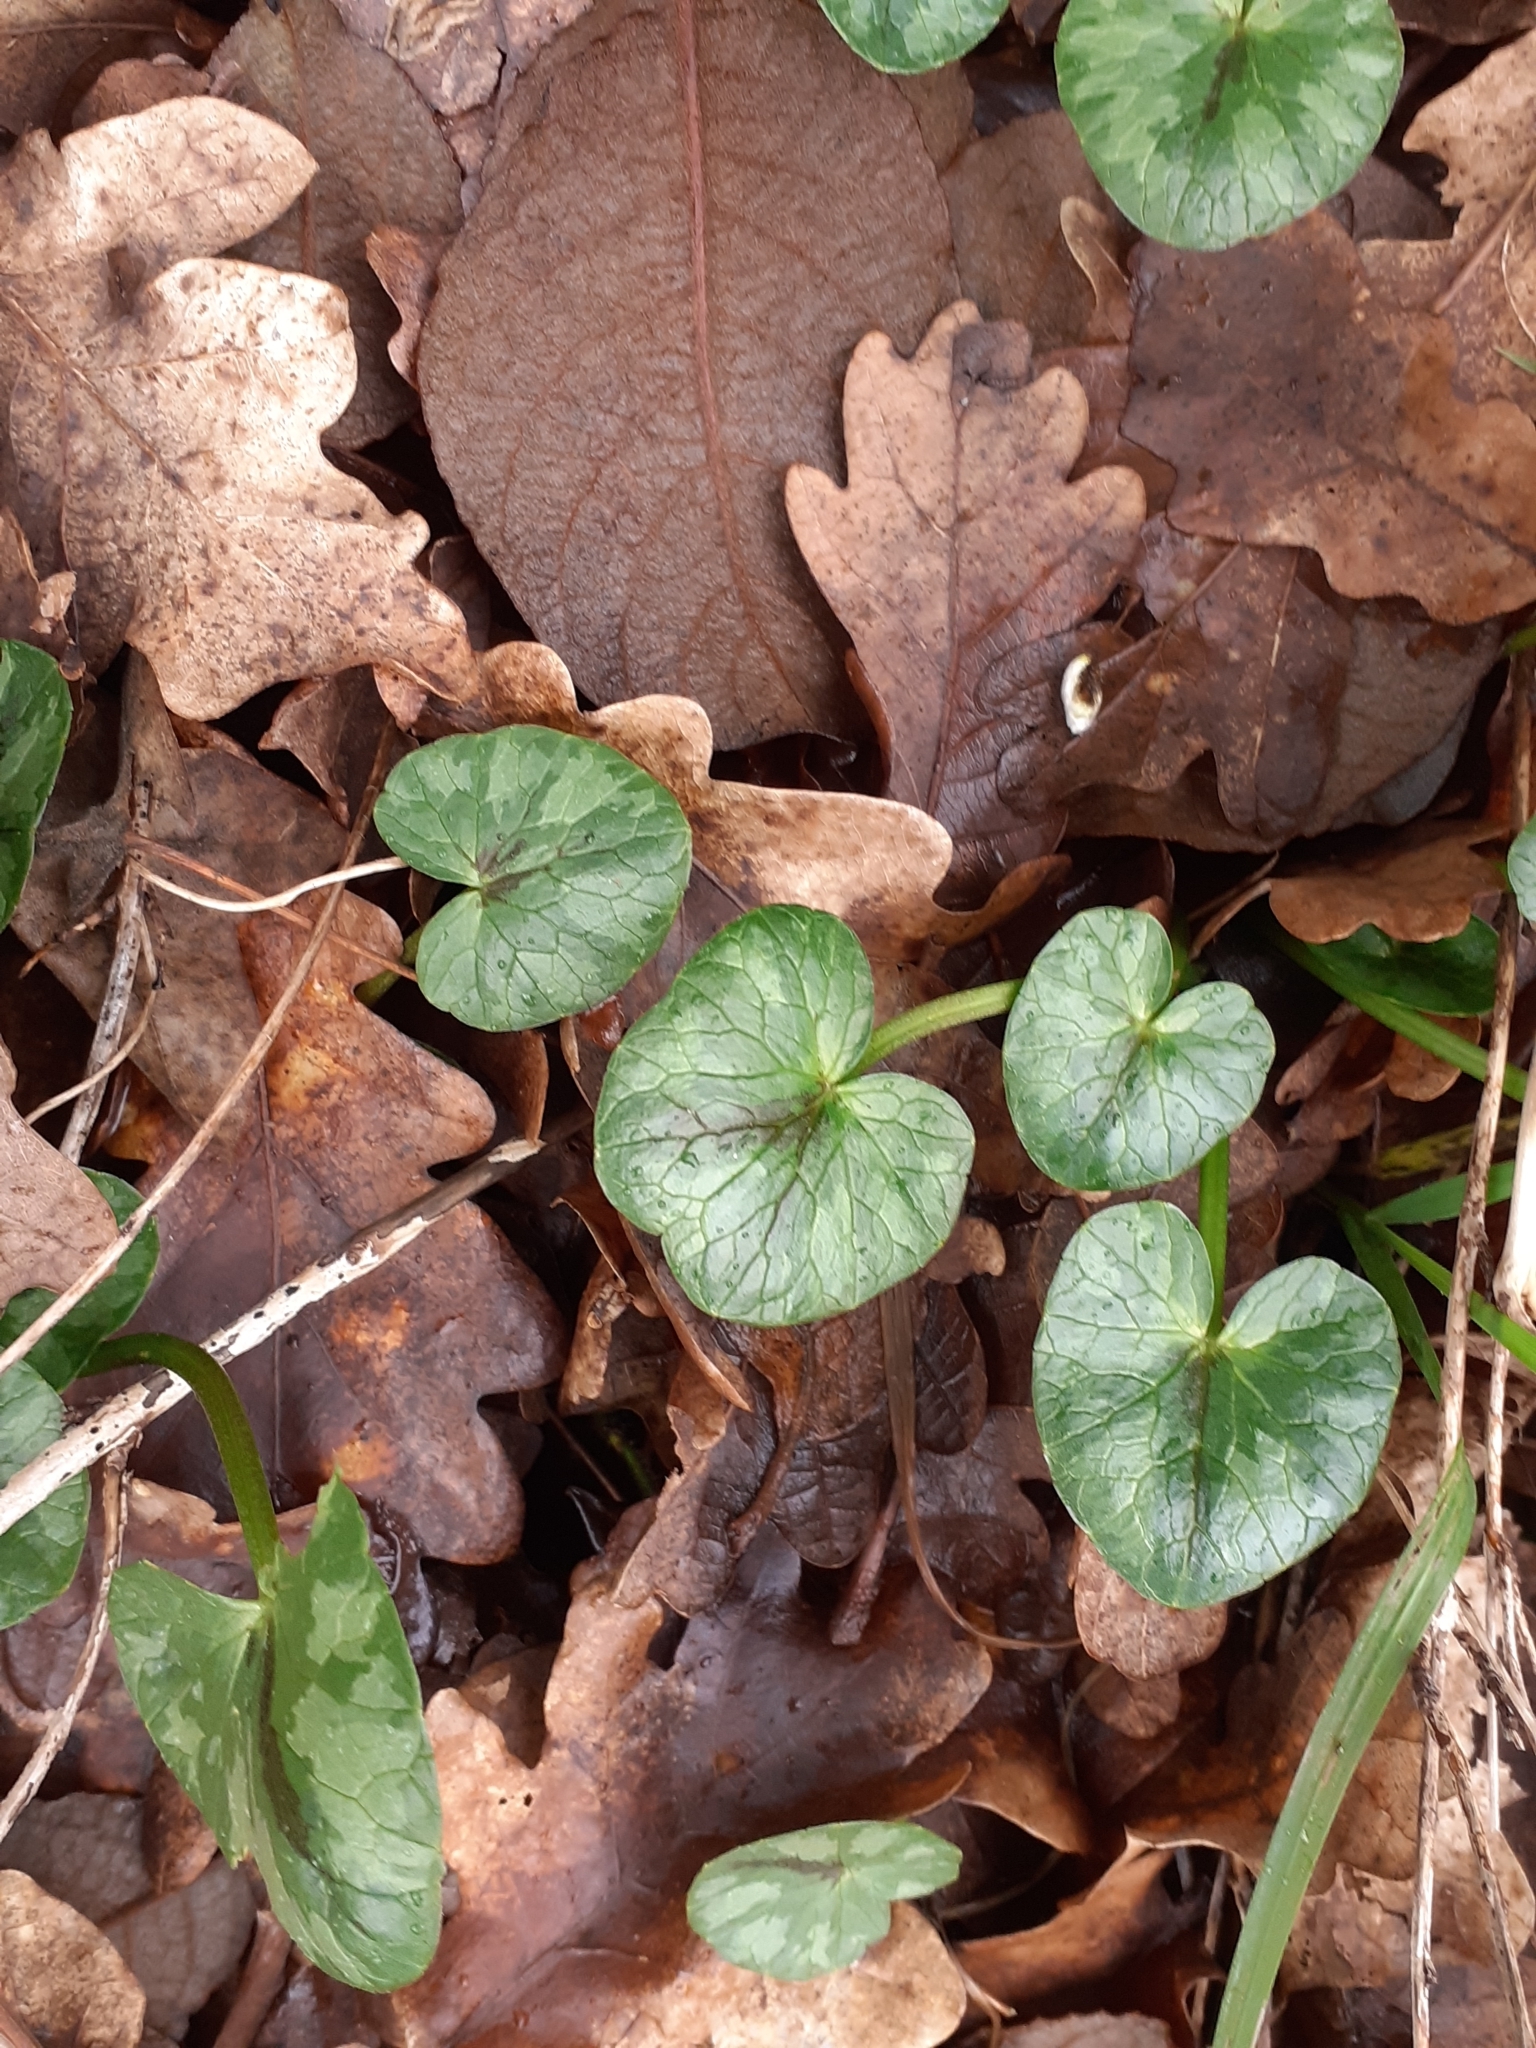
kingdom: Plantae
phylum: Tracheophyta
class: Magnoliopsida
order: Ranunculales
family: Ranunculaceae
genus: Ficaria
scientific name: Ficaria verna
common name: Lesser celandine
